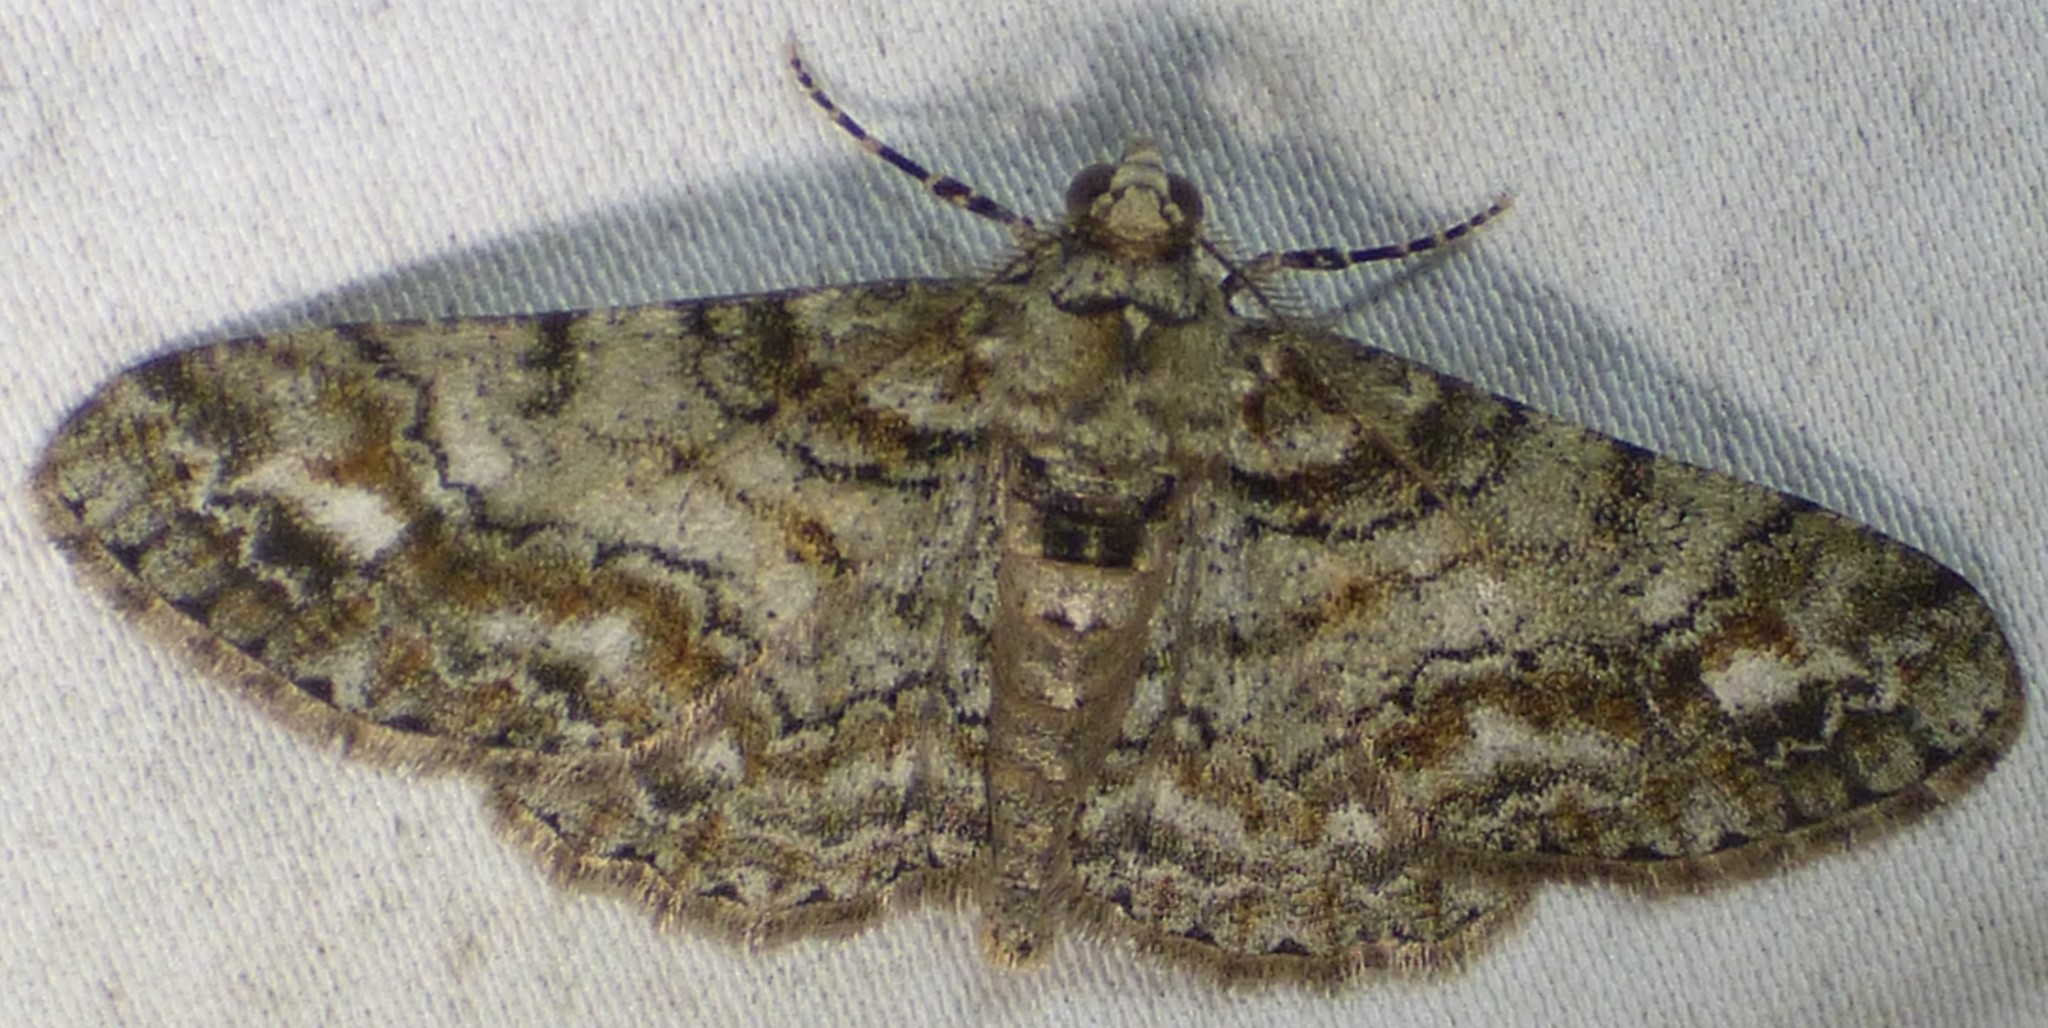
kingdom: Animalia
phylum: Arthropoda
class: Insecta
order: Lepidoptera
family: Geometridae
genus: Cleora
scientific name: Cleora sublunaria
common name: Double-lined gray
